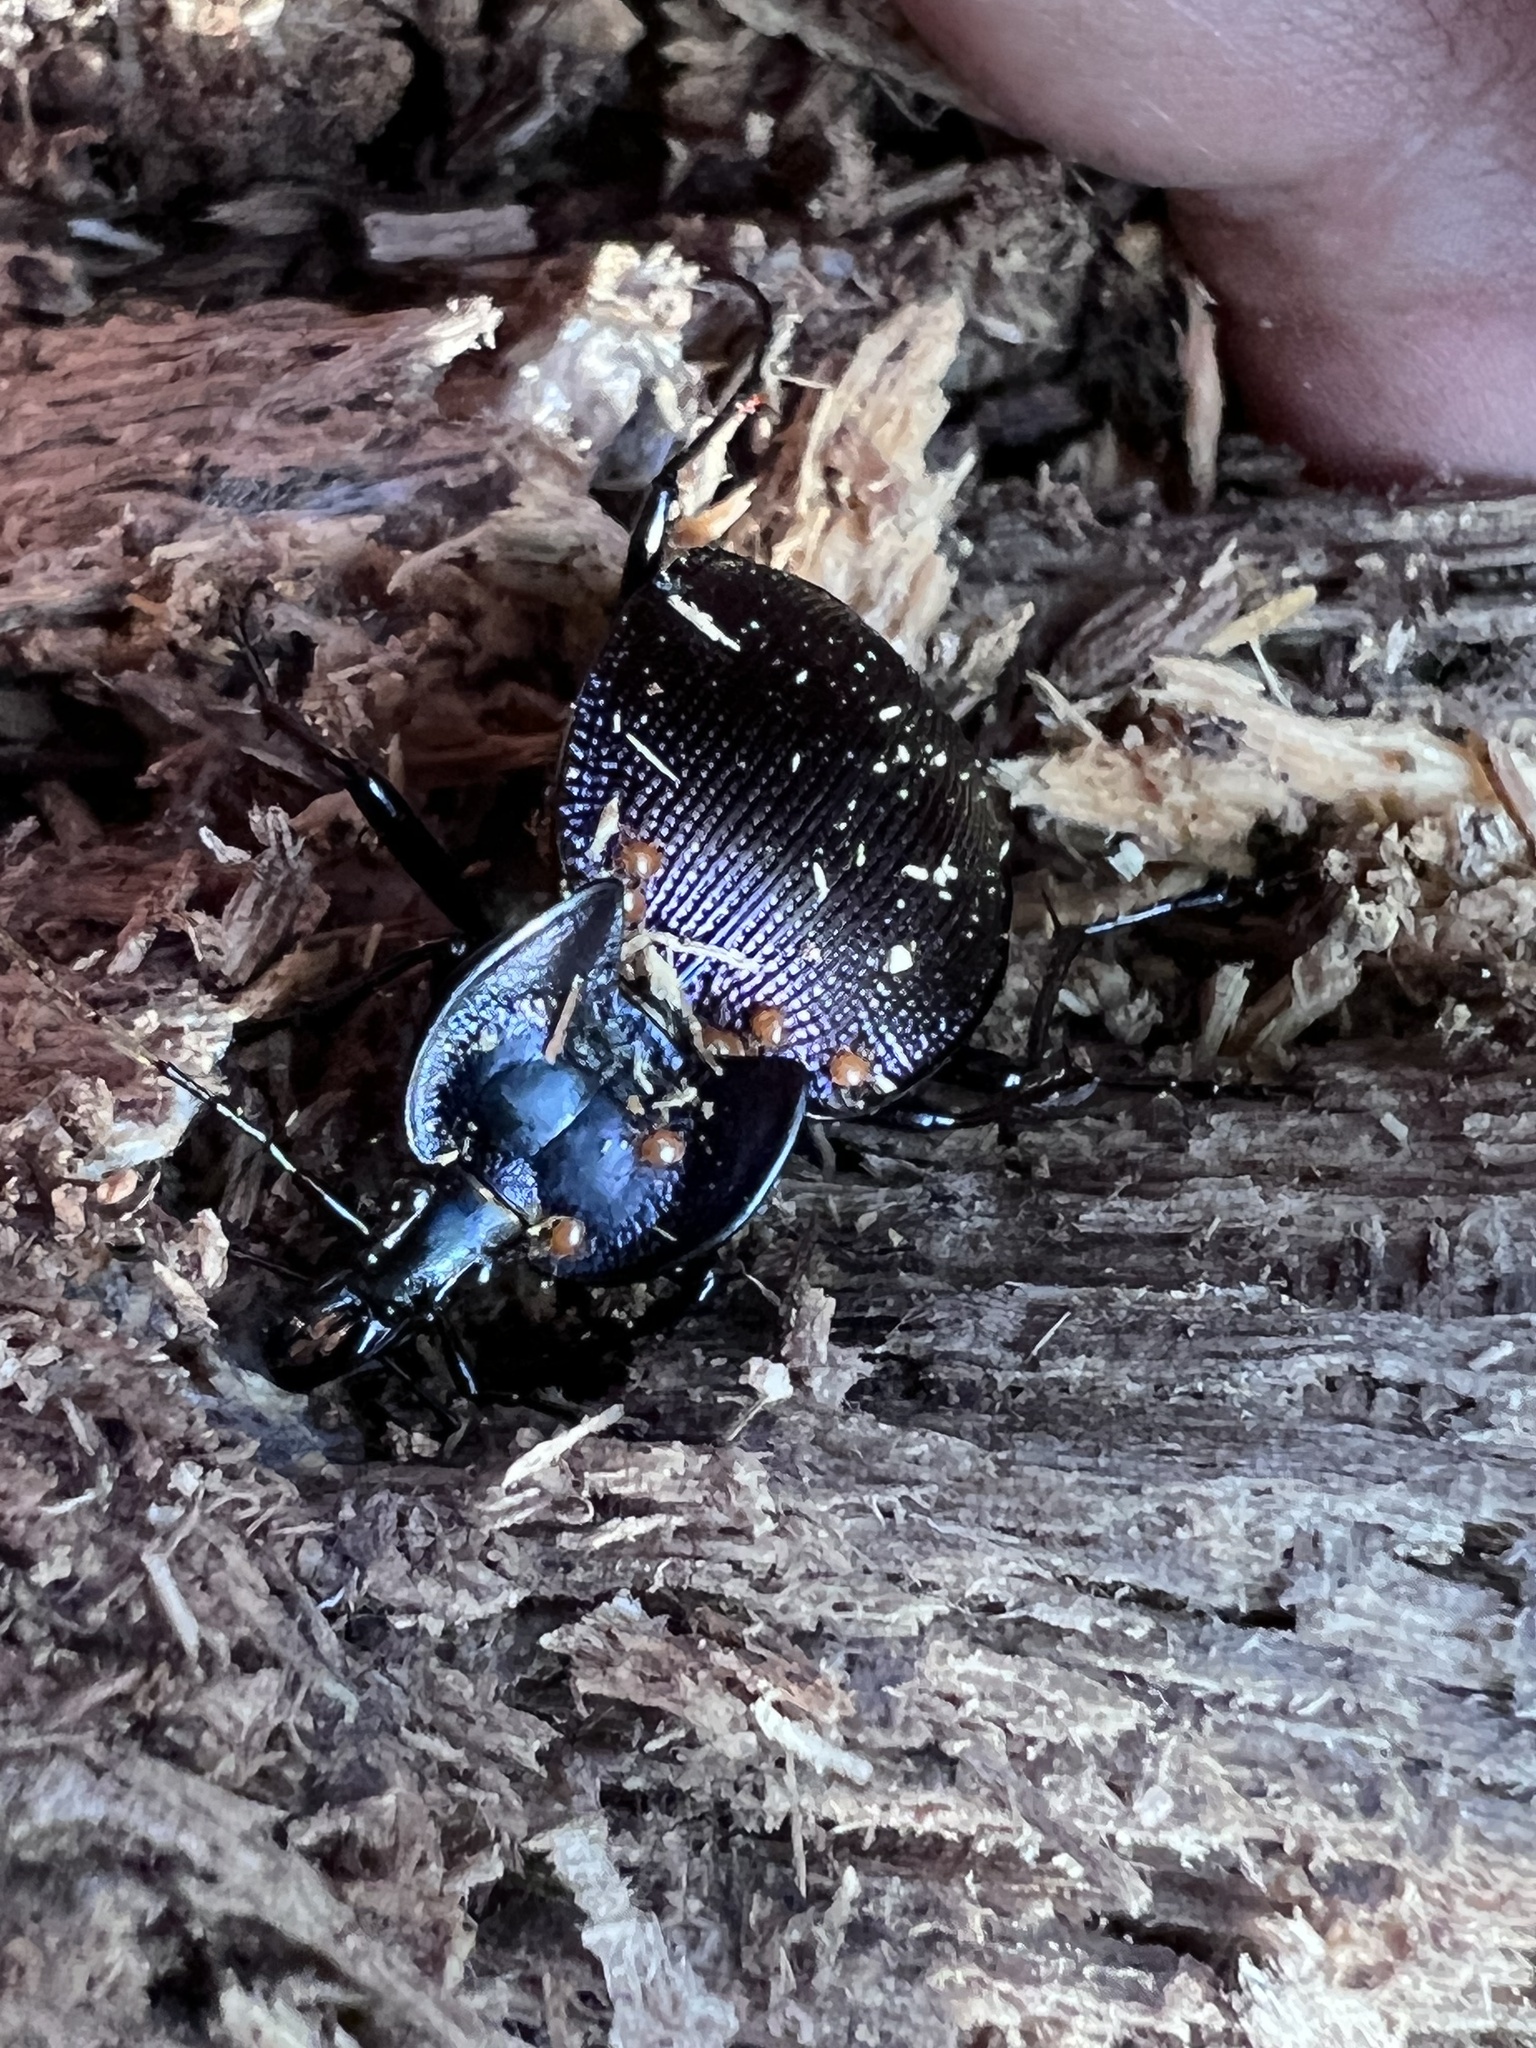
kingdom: Animalia
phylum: Arthropoda
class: Insecta
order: Coleoptera
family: Carabidae
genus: Scaphinotus
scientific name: Scaphinotus unicolor
